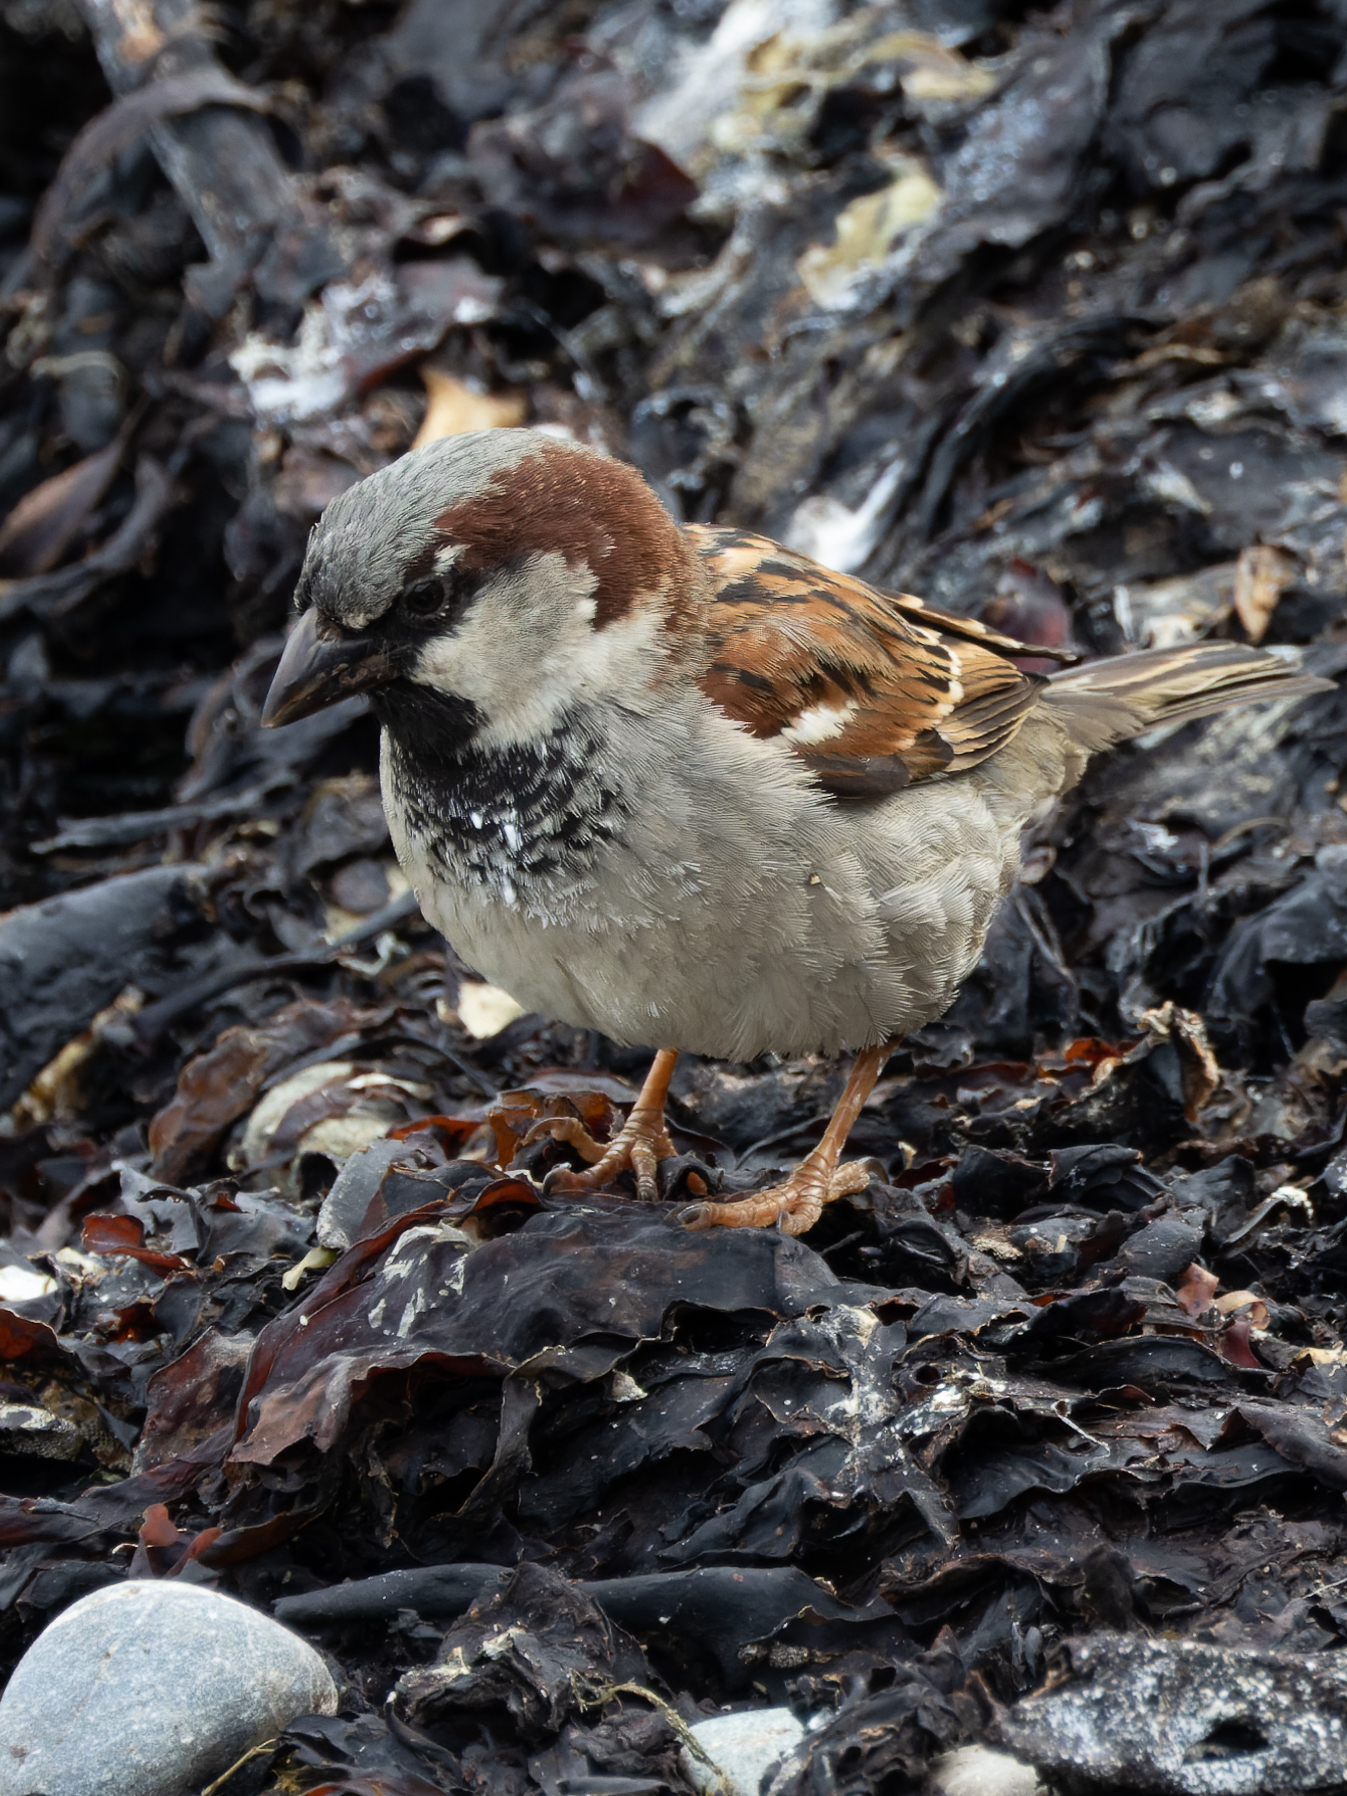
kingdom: Animalia
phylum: Chordata
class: Aves
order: Passeriformes
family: Passeridae
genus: Passer
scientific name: Passer domesticus
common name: House sparrow
